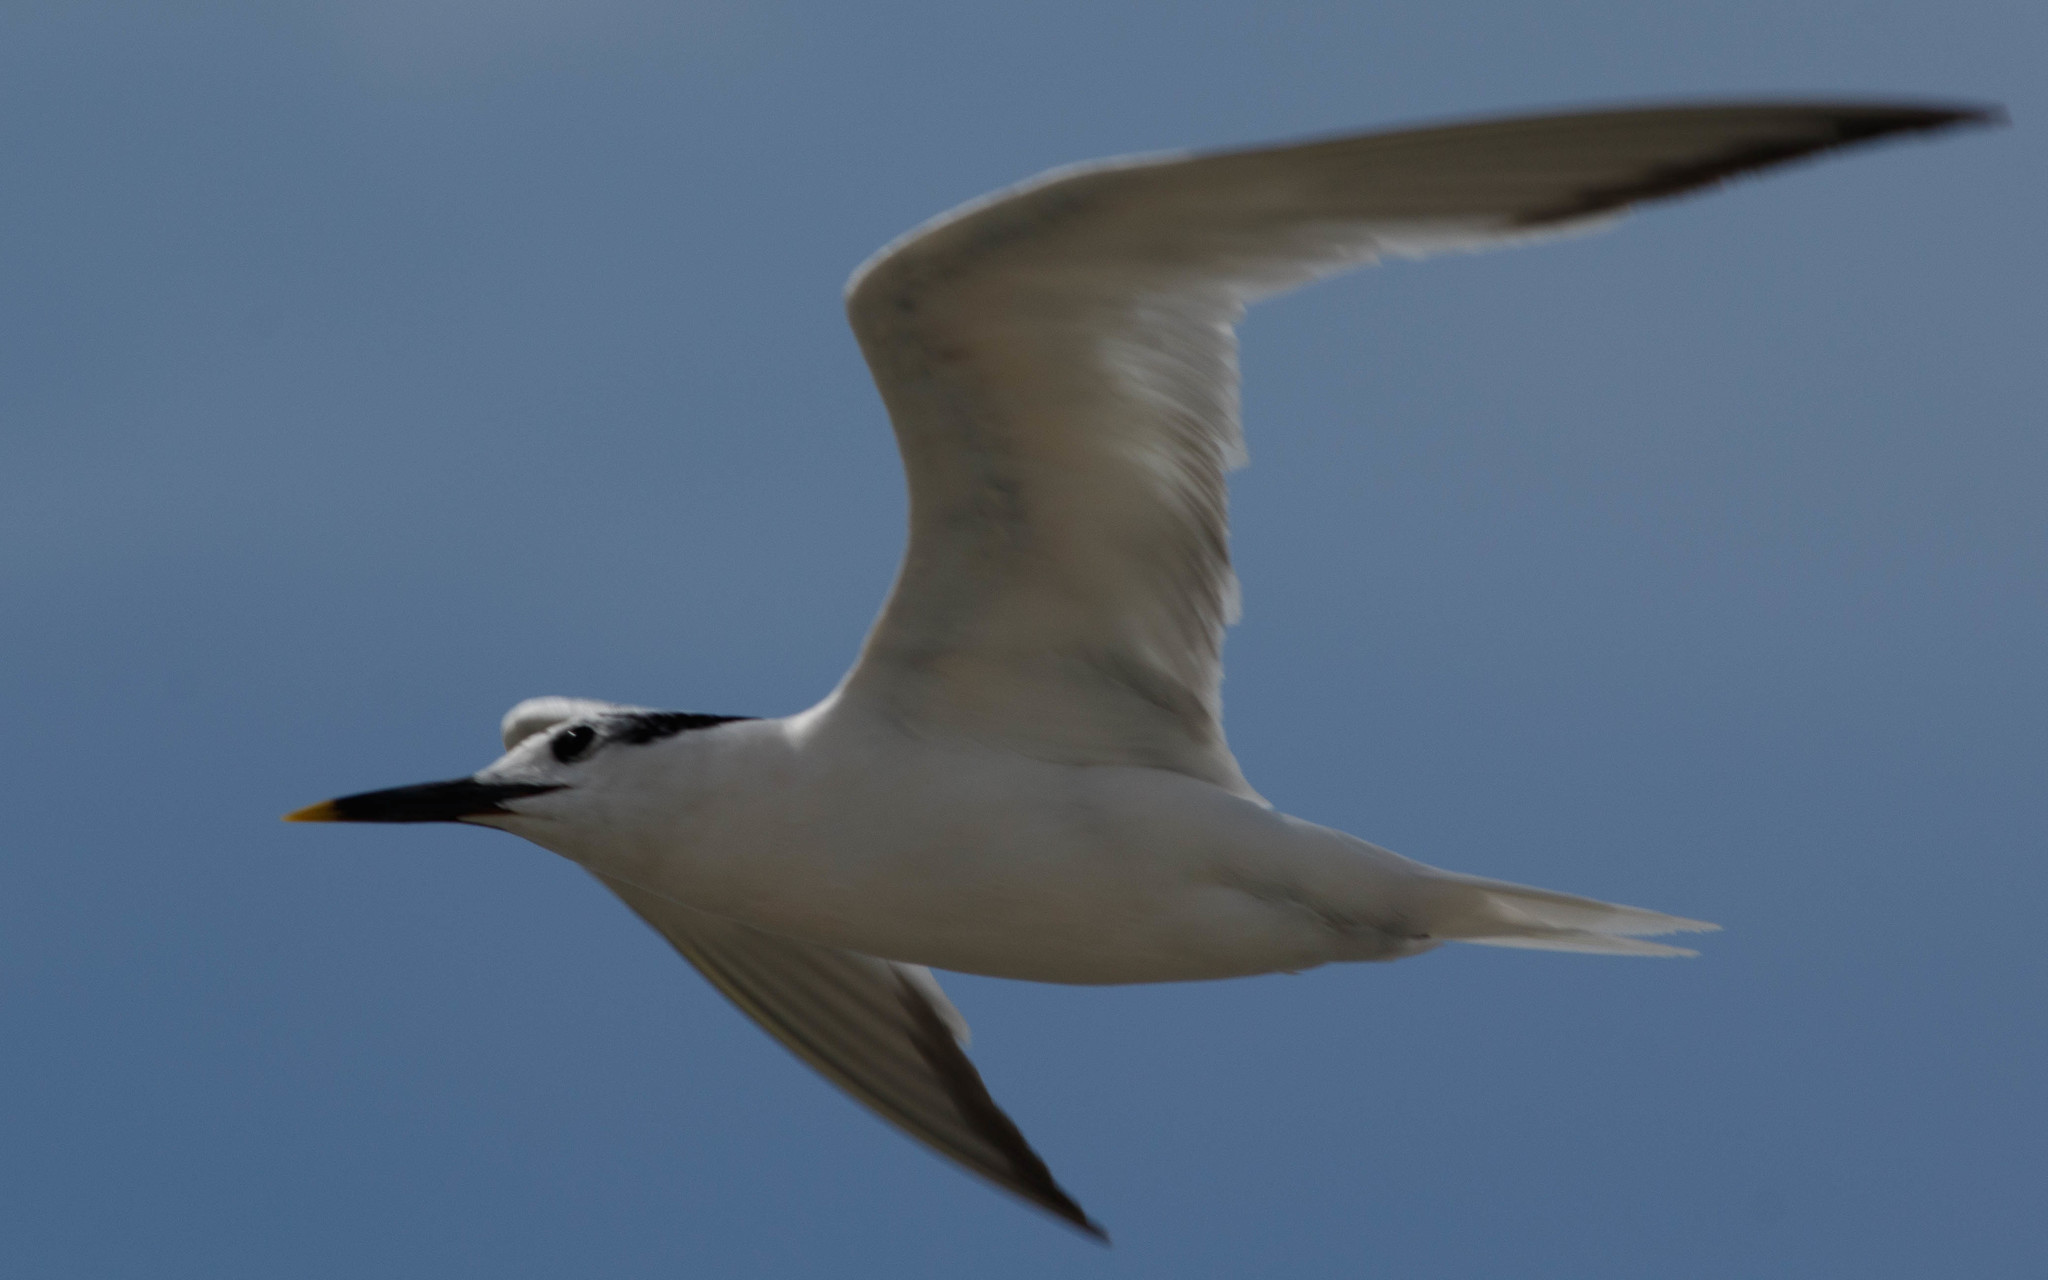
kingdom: Animalia
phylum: Chordata
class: Aves
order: Charadriiformes
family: Laridae
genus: Thalasseus
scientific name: Thalasseus sandvicensis
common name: Sandwich tern
